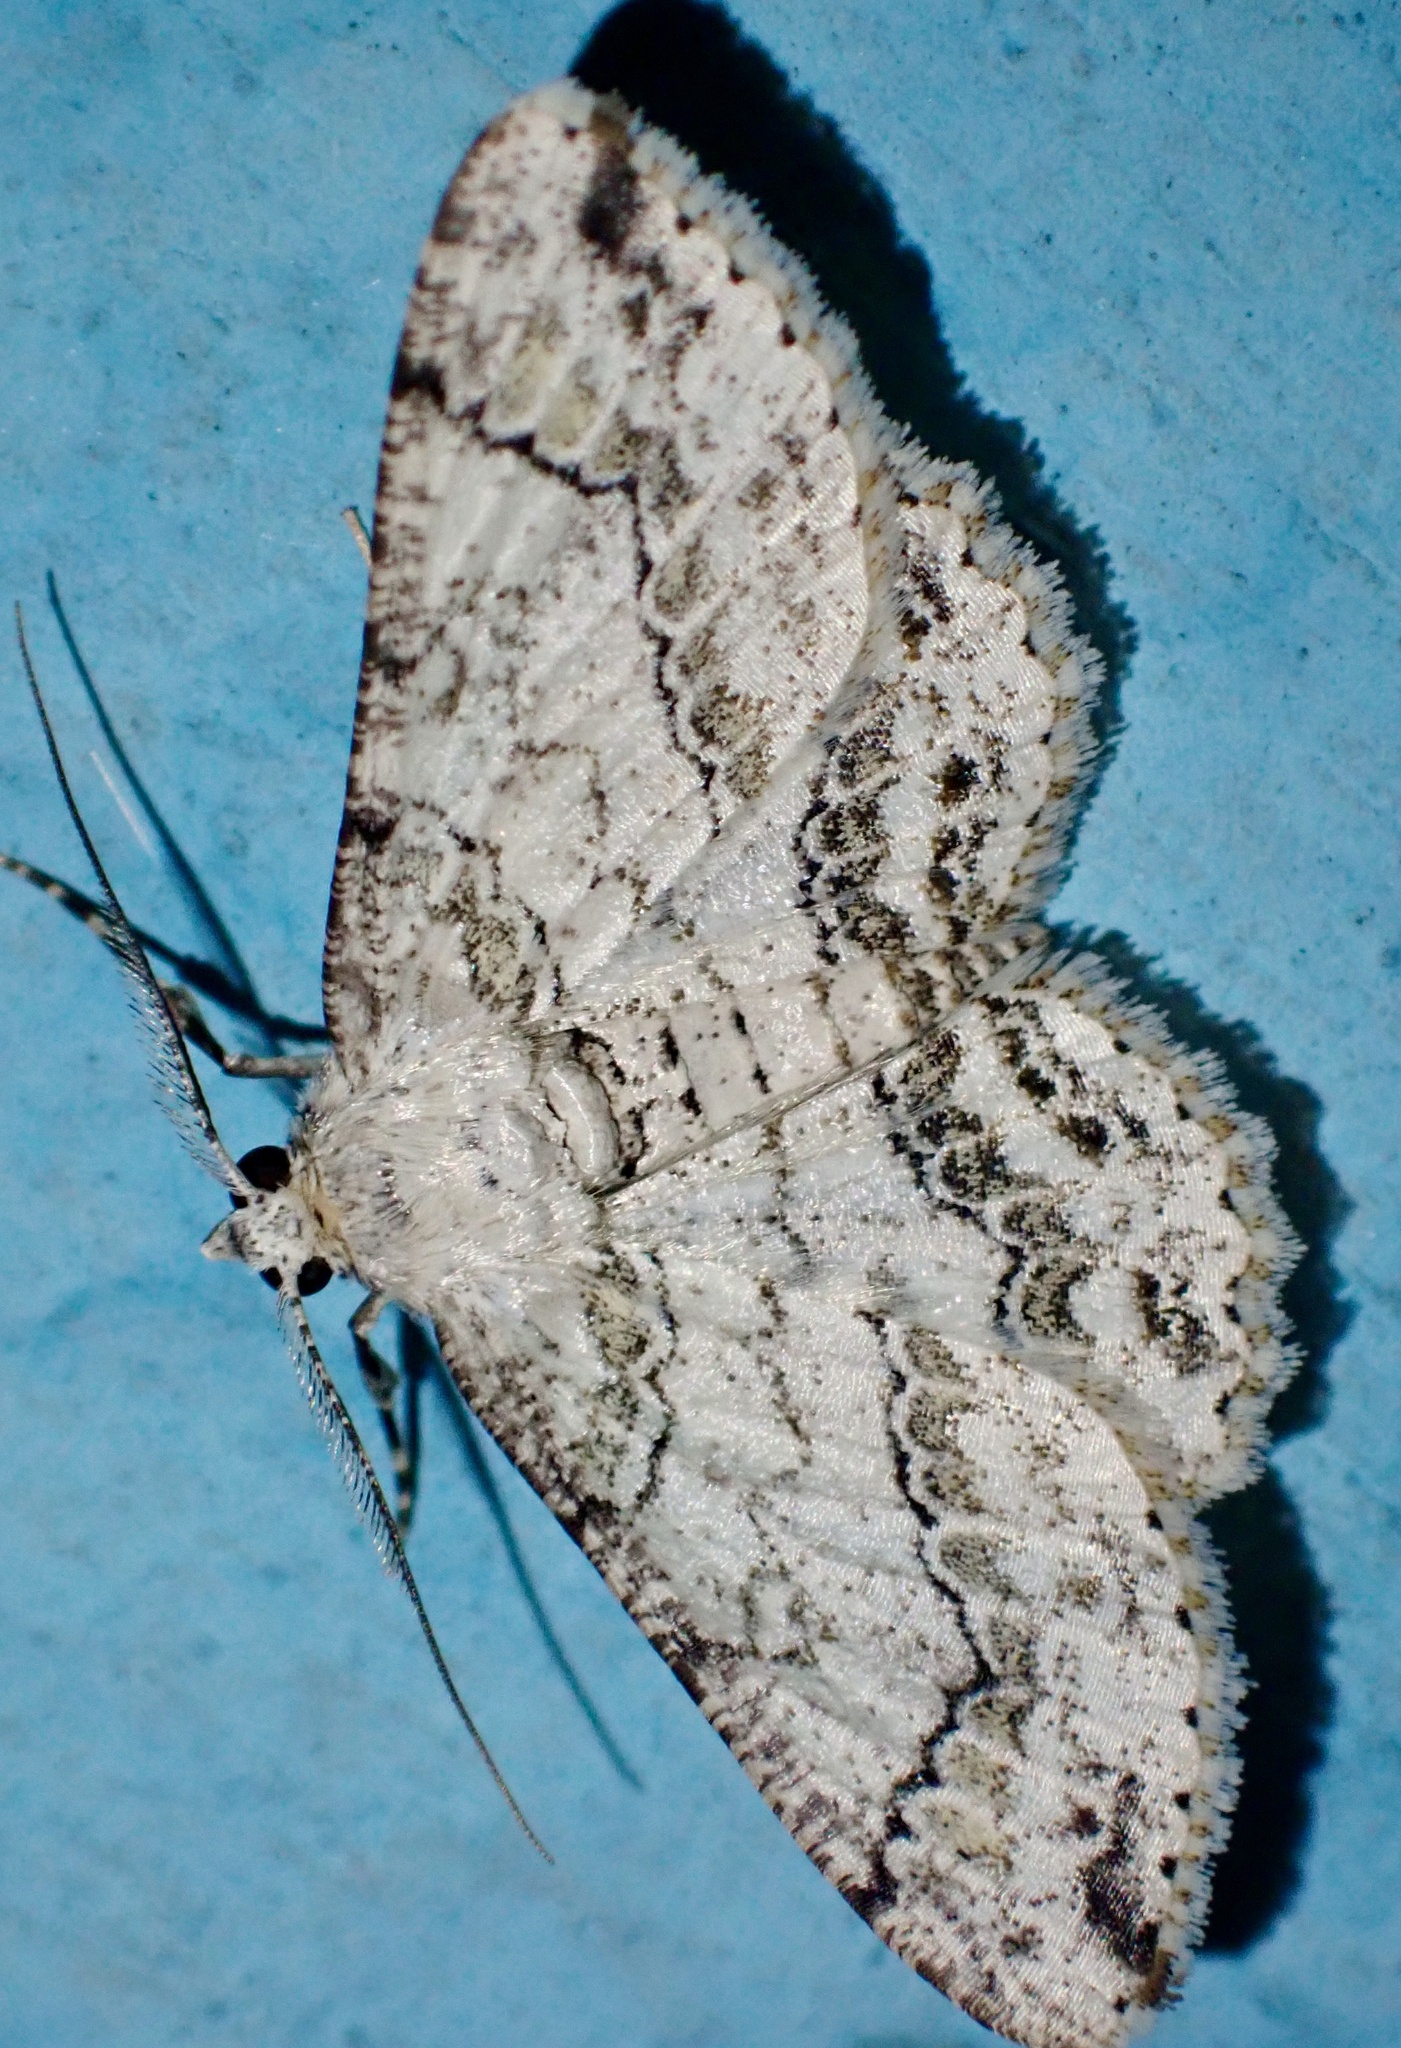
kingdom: Animalia
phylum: Arthropoda
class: Insecta
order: Lepidoptera
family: Geometridae
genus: Cleora
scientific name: Cleora compectinata
